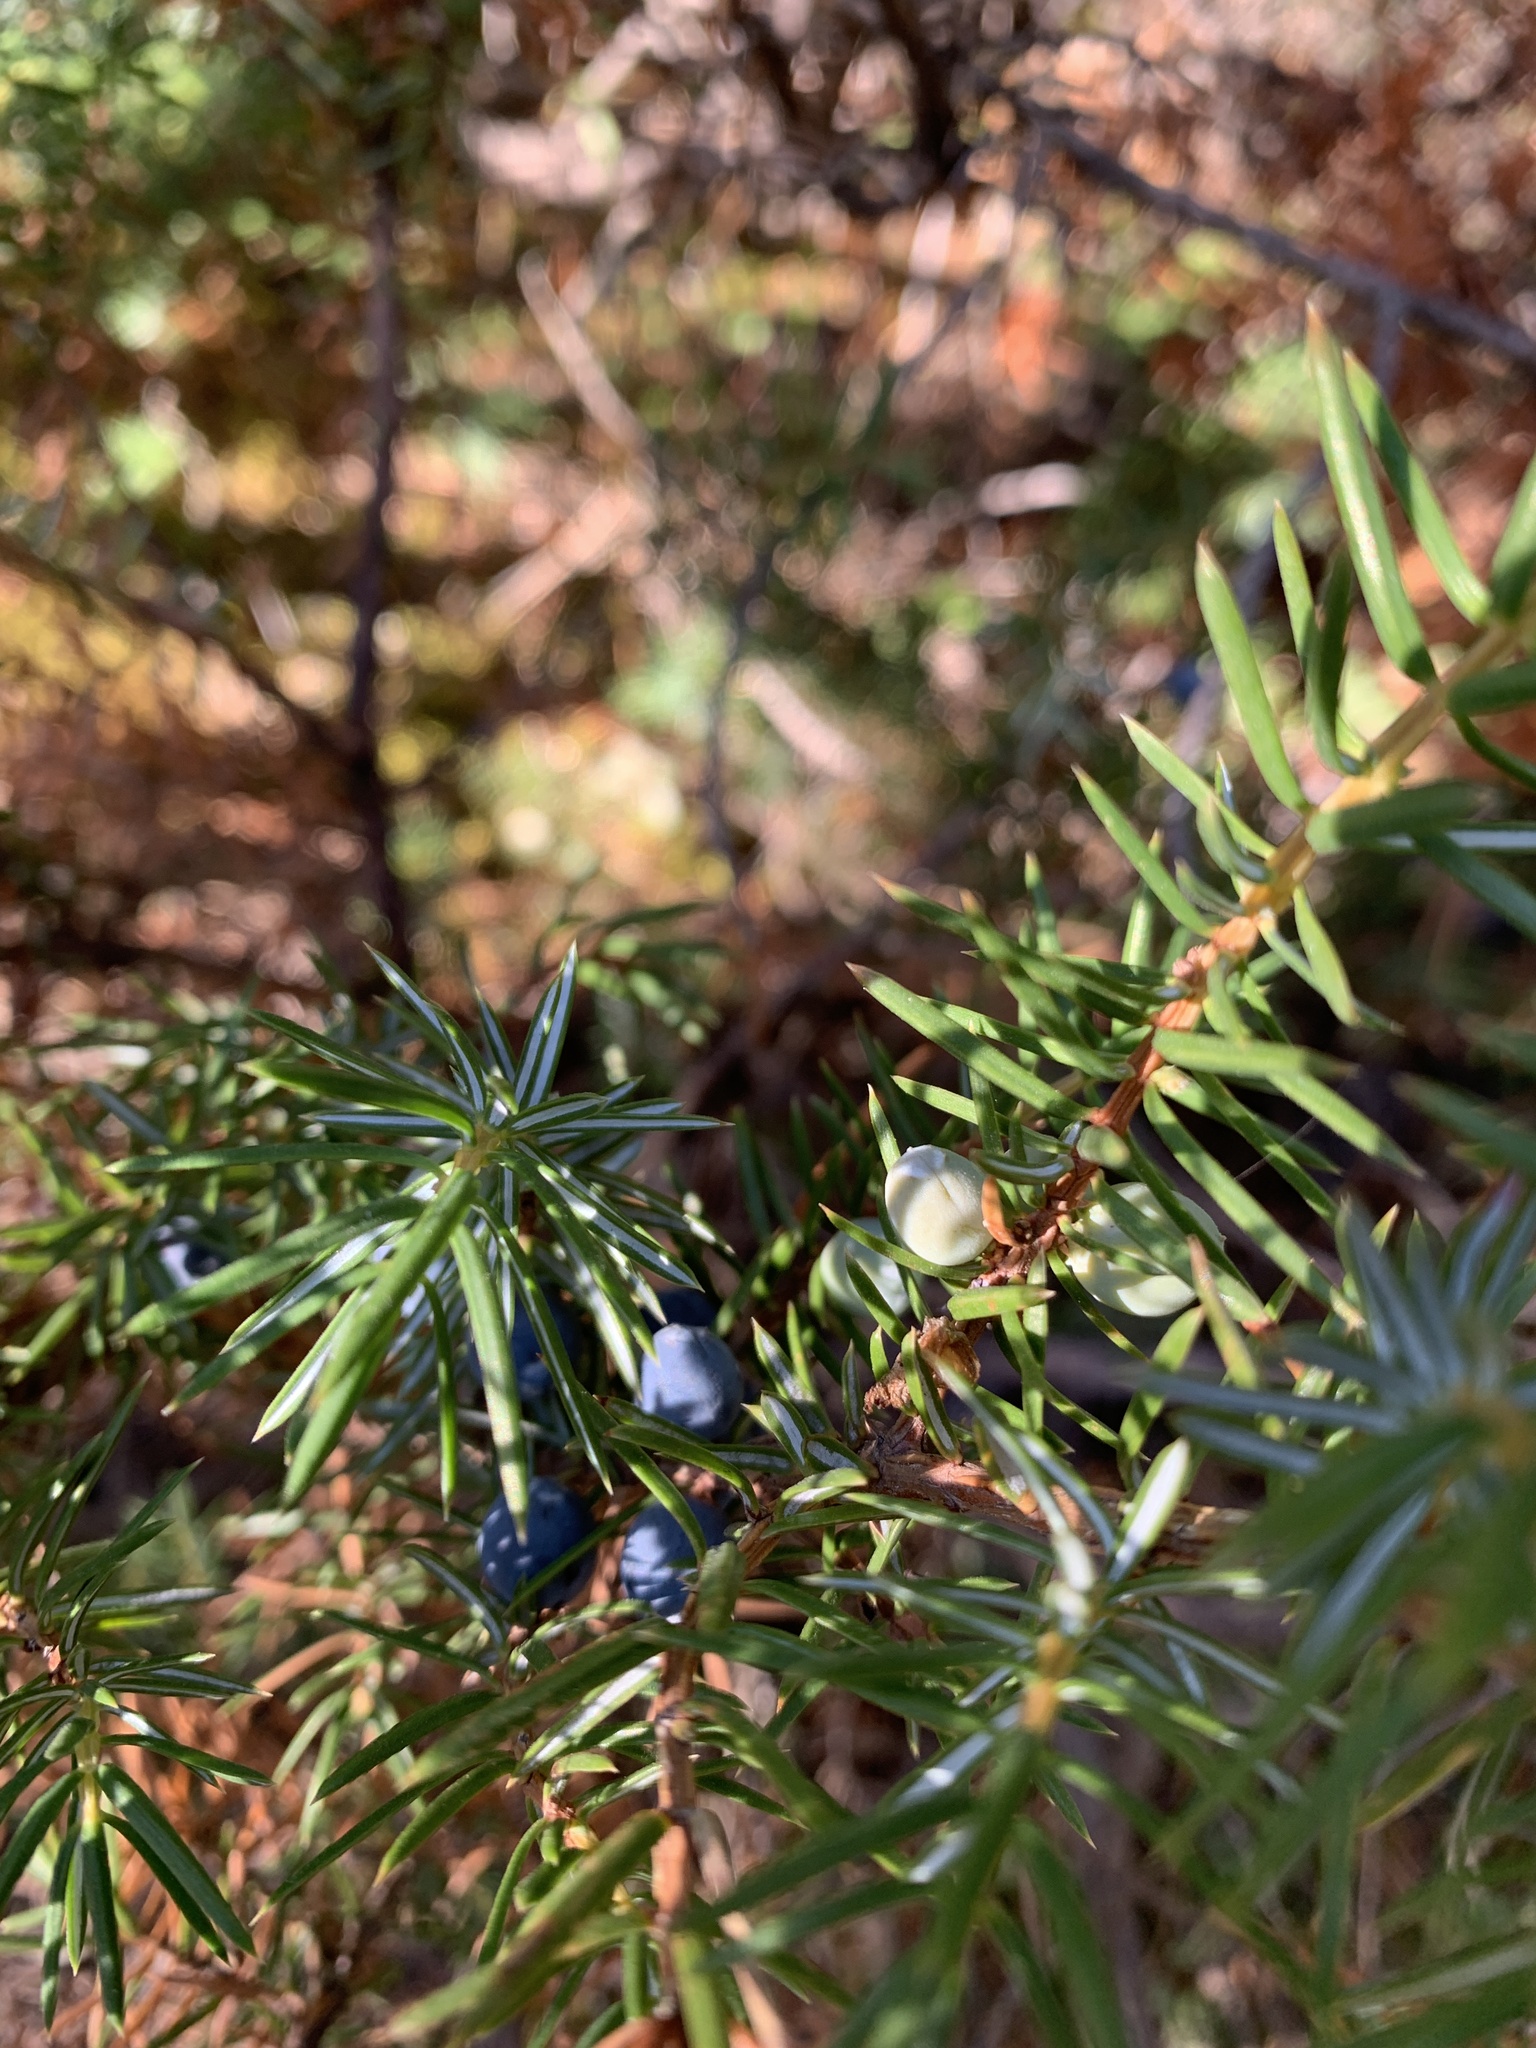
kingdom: Plantae
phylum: Tracheophyta
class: Pinopsida
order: Pinales
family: Cupressaceae
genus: Juniperus
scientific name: Juniperus communis
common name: Common juniper
